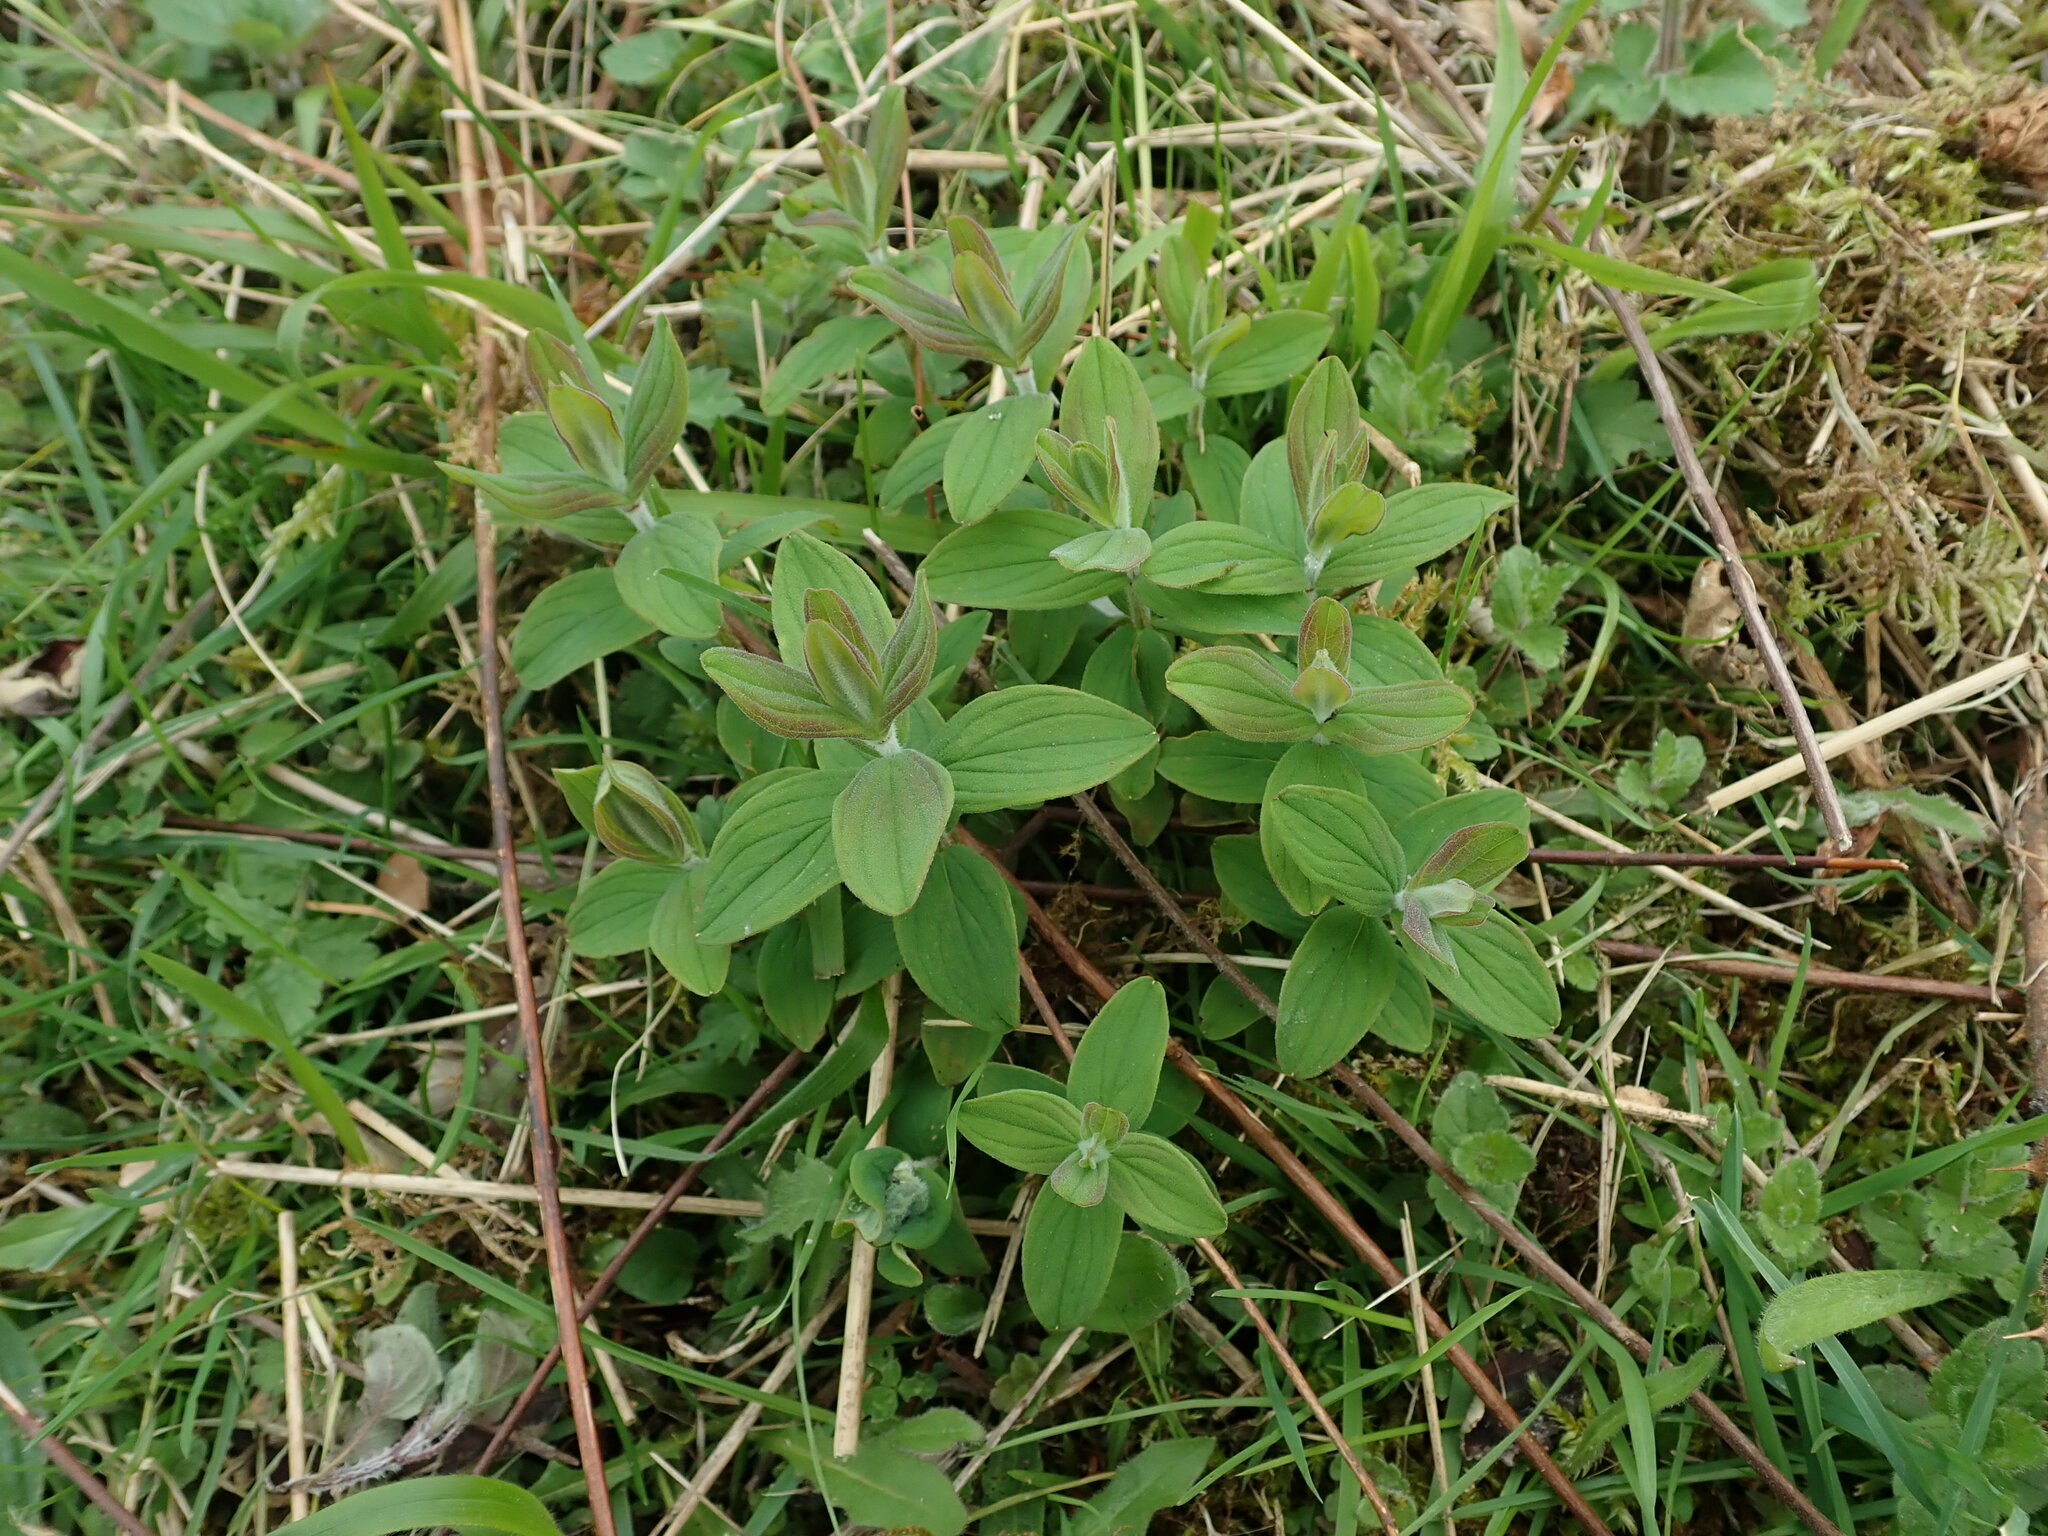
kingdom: Plantae
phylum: Tracheophyta
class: Magnoliopsida
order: Malpighiales
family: Hypericaceae
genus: Hypericum
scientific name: Hypericum hirsutum
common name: Hairy st. john's-wort
